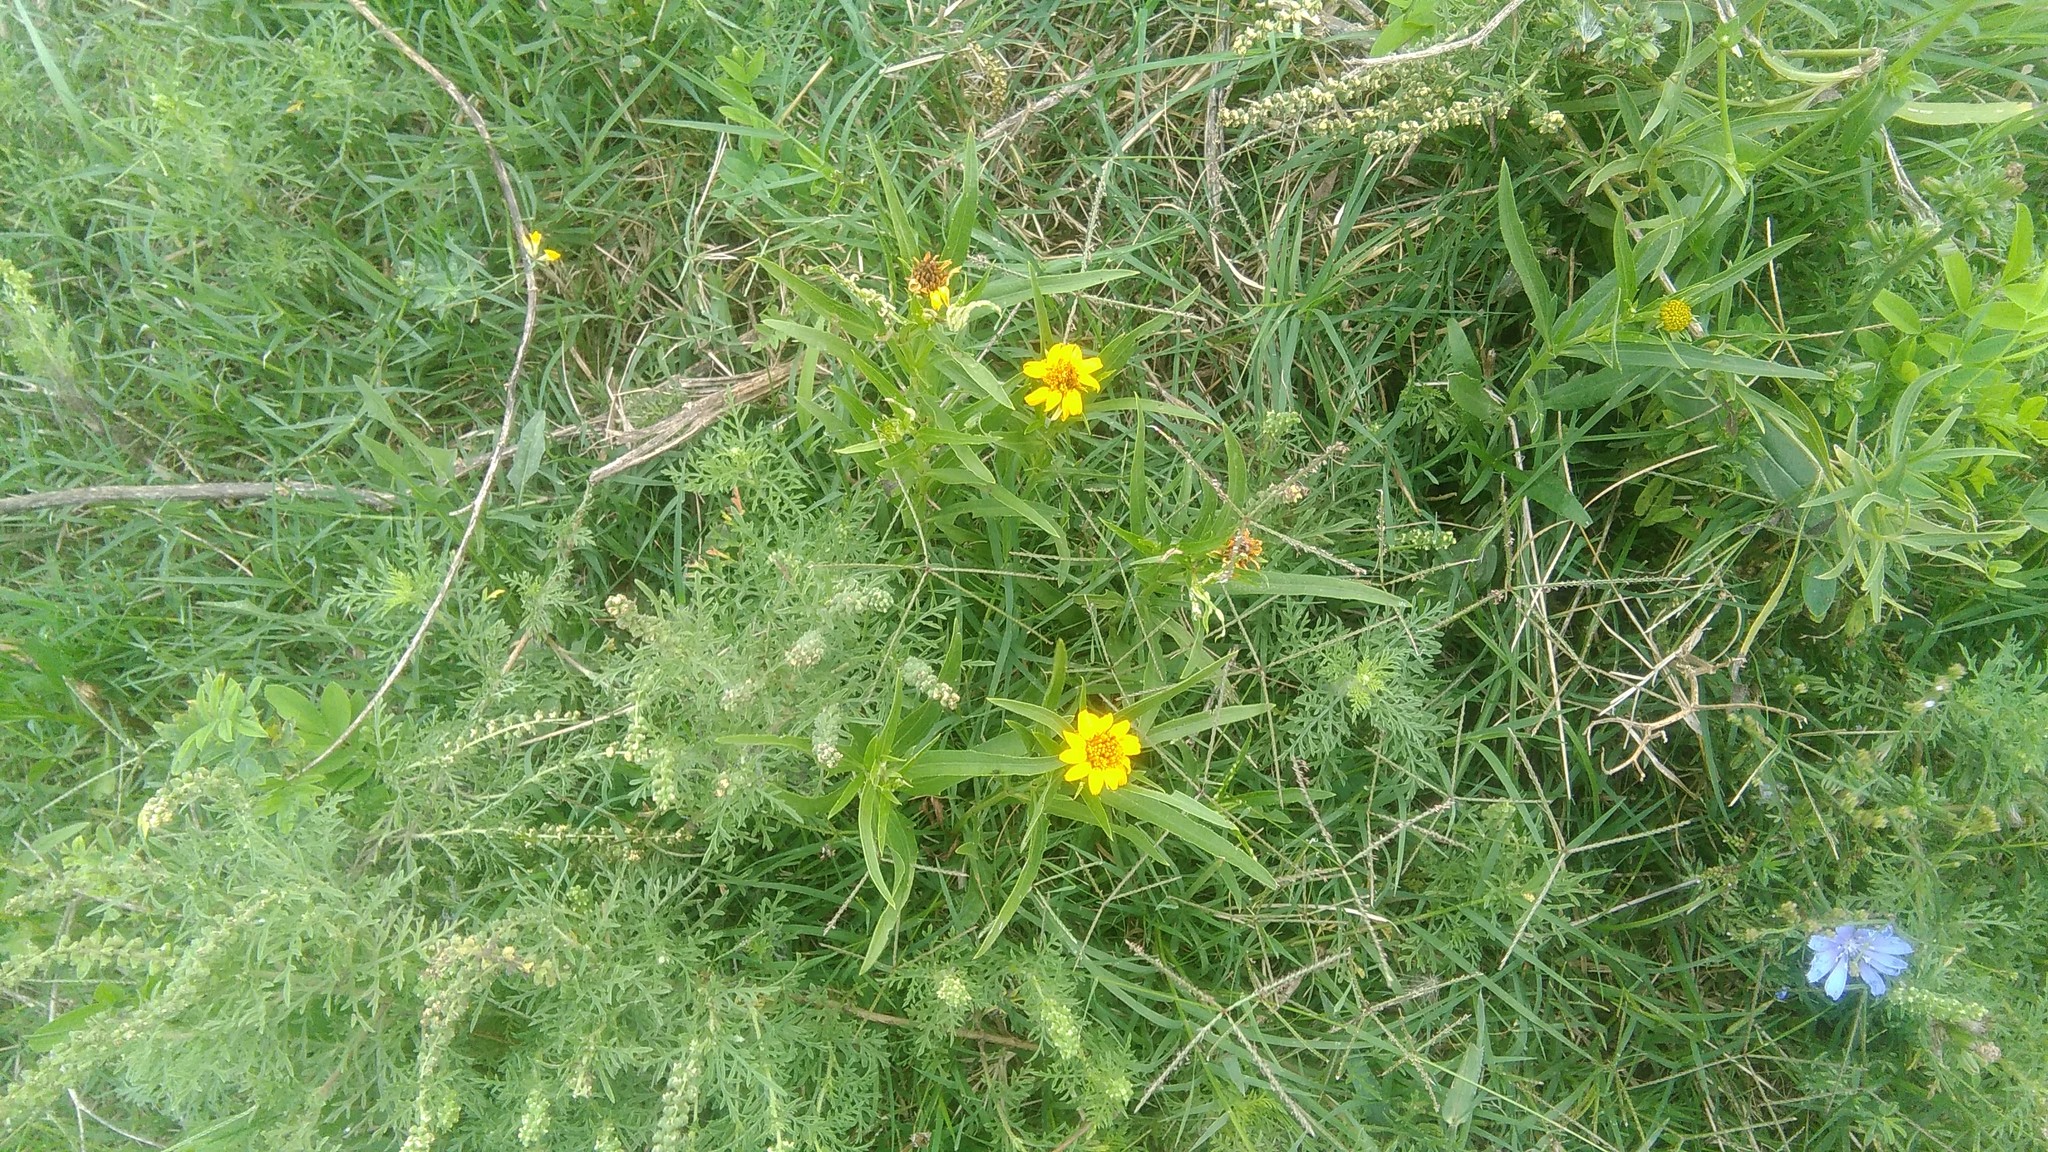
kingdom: Plantae
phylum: Tracheophyta
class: Magnoliopsida
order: Asterales
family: Asteraceae
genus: Pascalia
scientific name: Pascalia glauca
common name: Beach creeping oxeye
